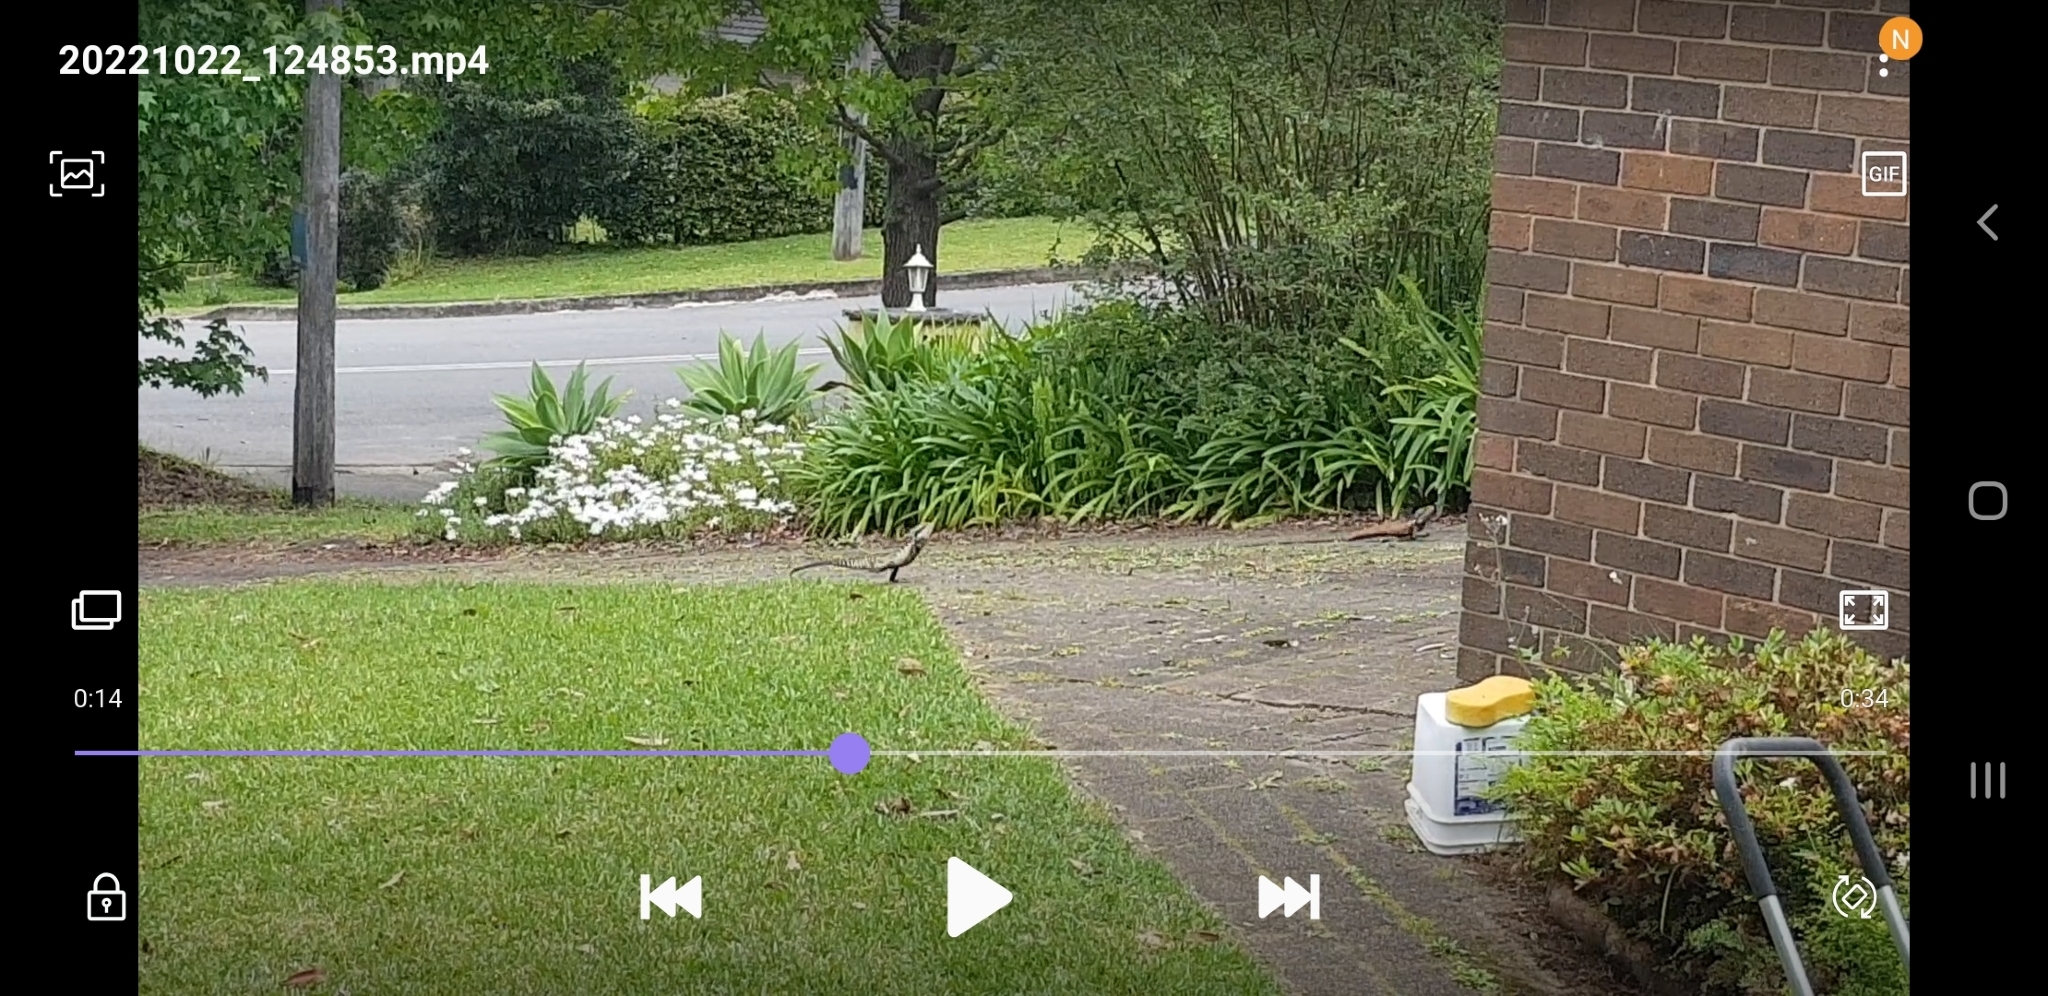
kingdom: Animalia
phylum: Chordata
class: Squamata
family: Agamidae
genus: Intellagama
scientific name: Intellagama lesueurii
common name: Eastern water dragon
